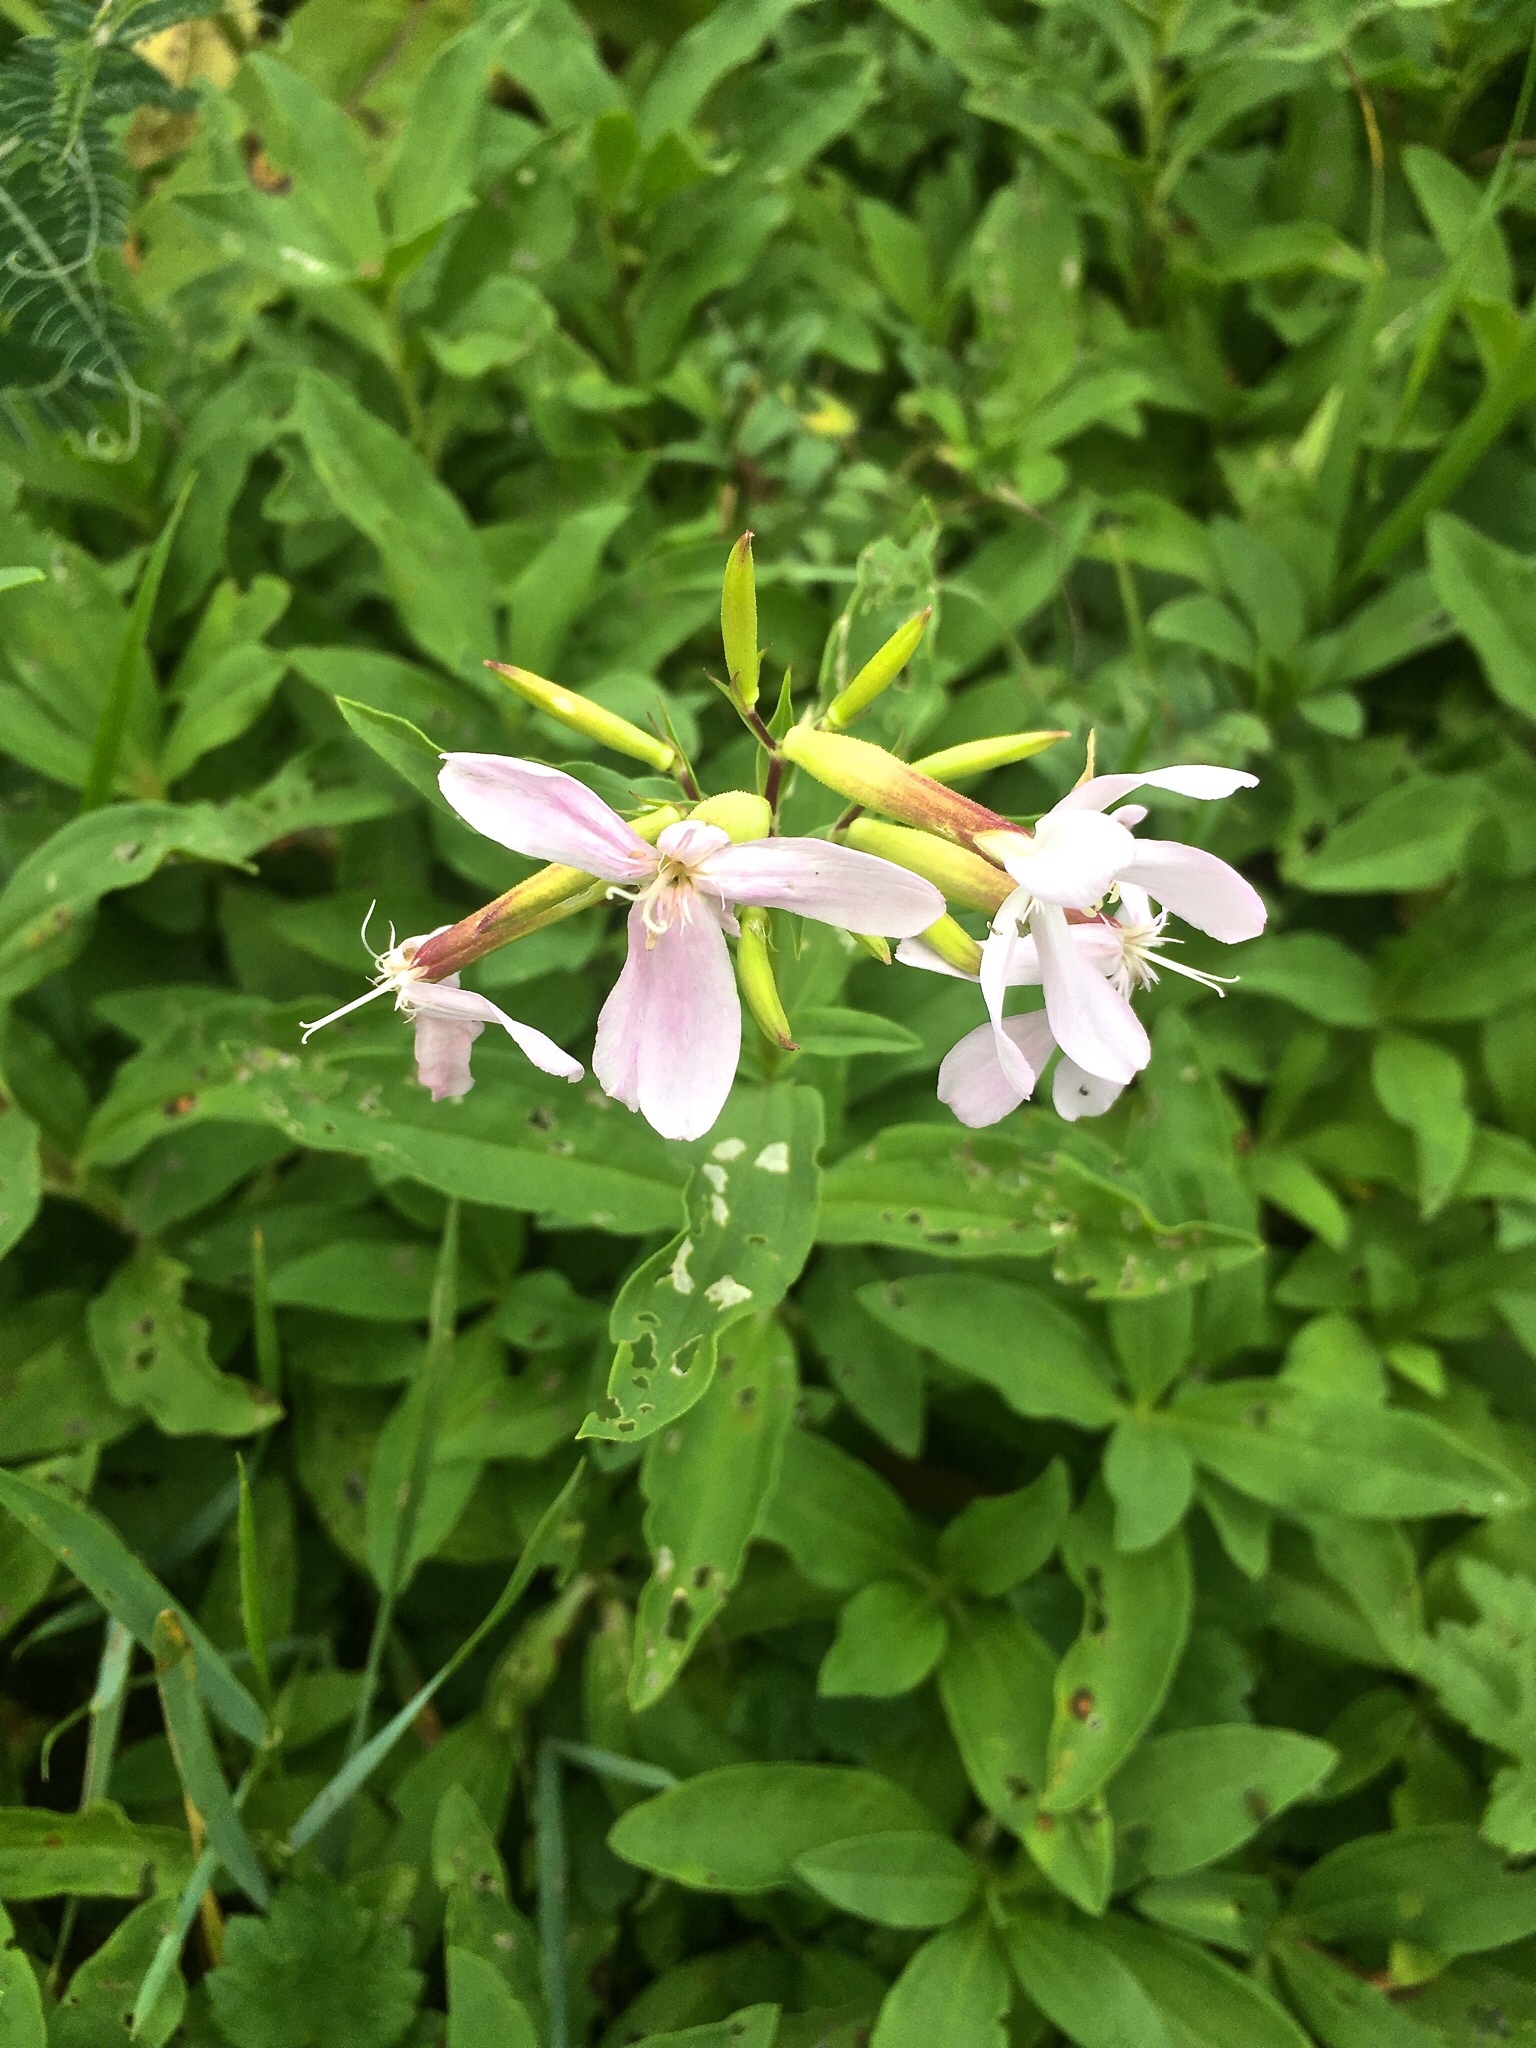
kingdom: Plantae
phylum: Tracheophyta
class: Magnoliopsida
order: Caryophyllales
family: Caryophyllaceae
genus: Saponaria
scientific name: Saponaria officinalis
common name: Soapwort
